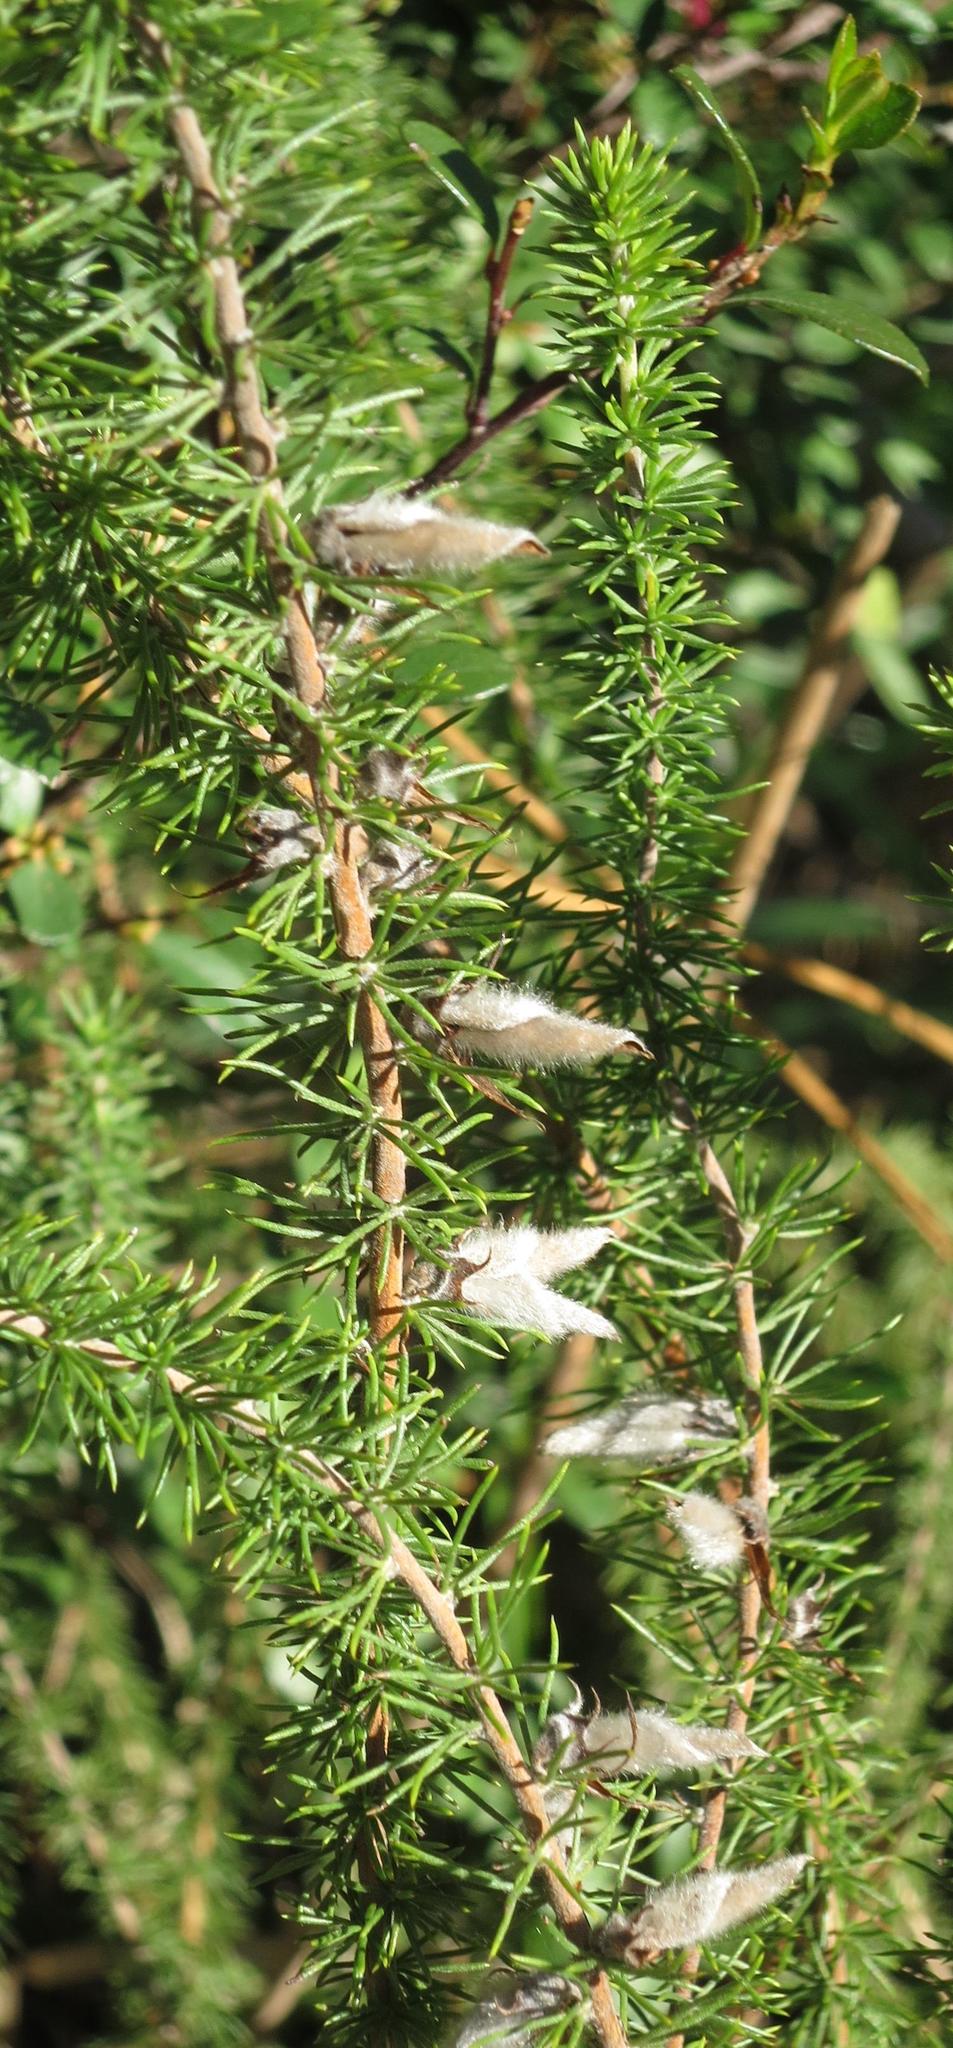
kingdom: Plantae
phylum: Tracheophyta
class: Magnoliopsida
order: Fabales
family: Fabaceae
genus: Aspalathus
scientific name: Aspalathus laricifolia
